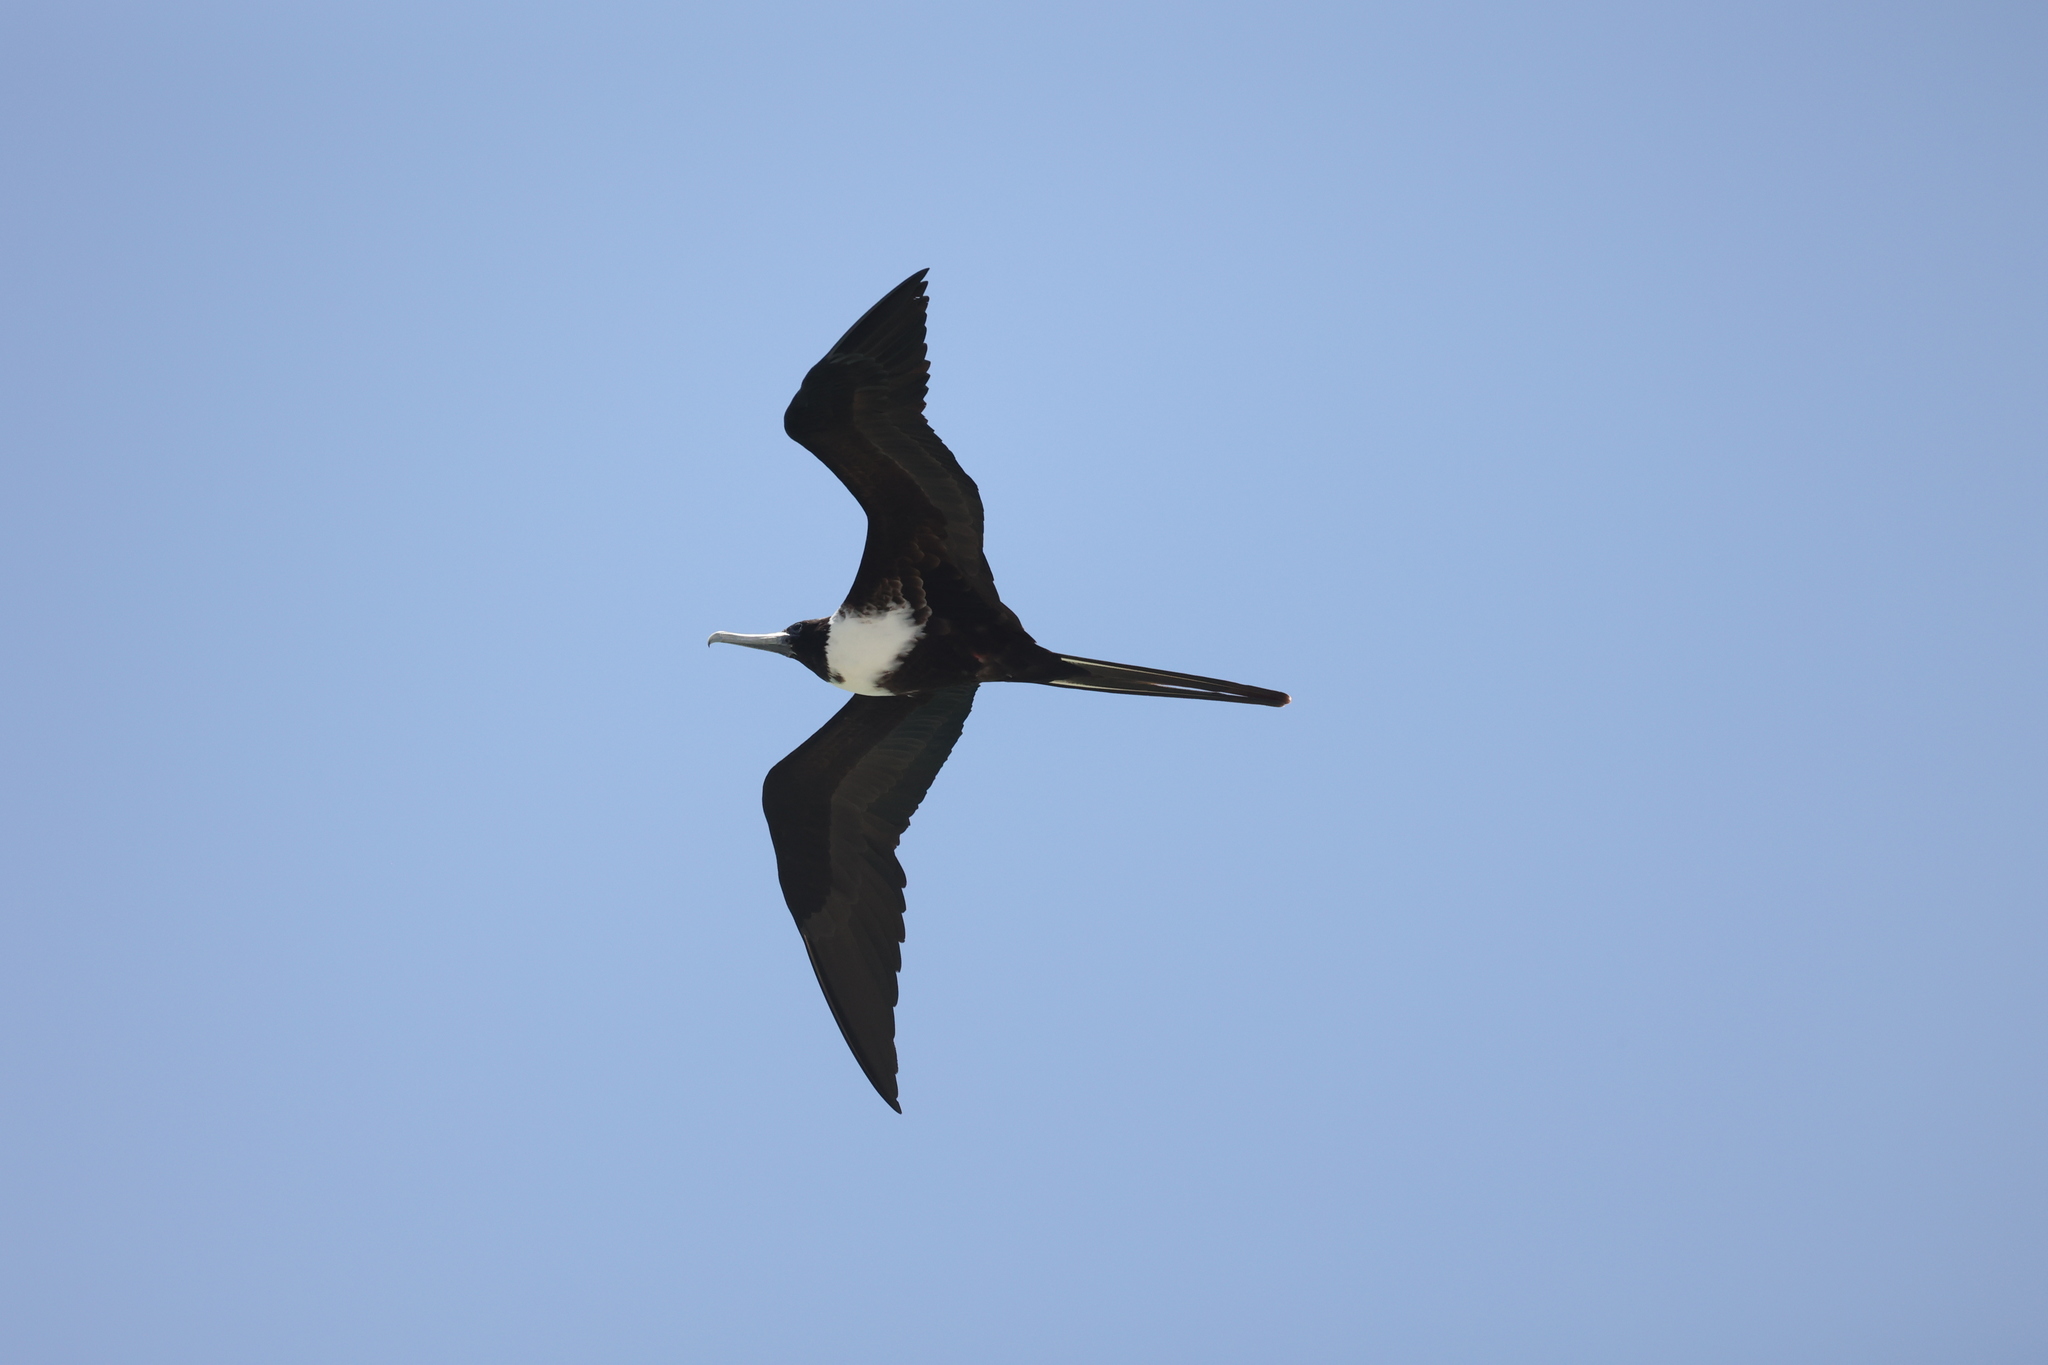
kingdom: Animalia
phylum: Chordata
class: Aves
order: Suliformes
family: Fregatidae
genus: Fregata
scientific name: Fregata magnificens
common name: Magnificent frigatebird
